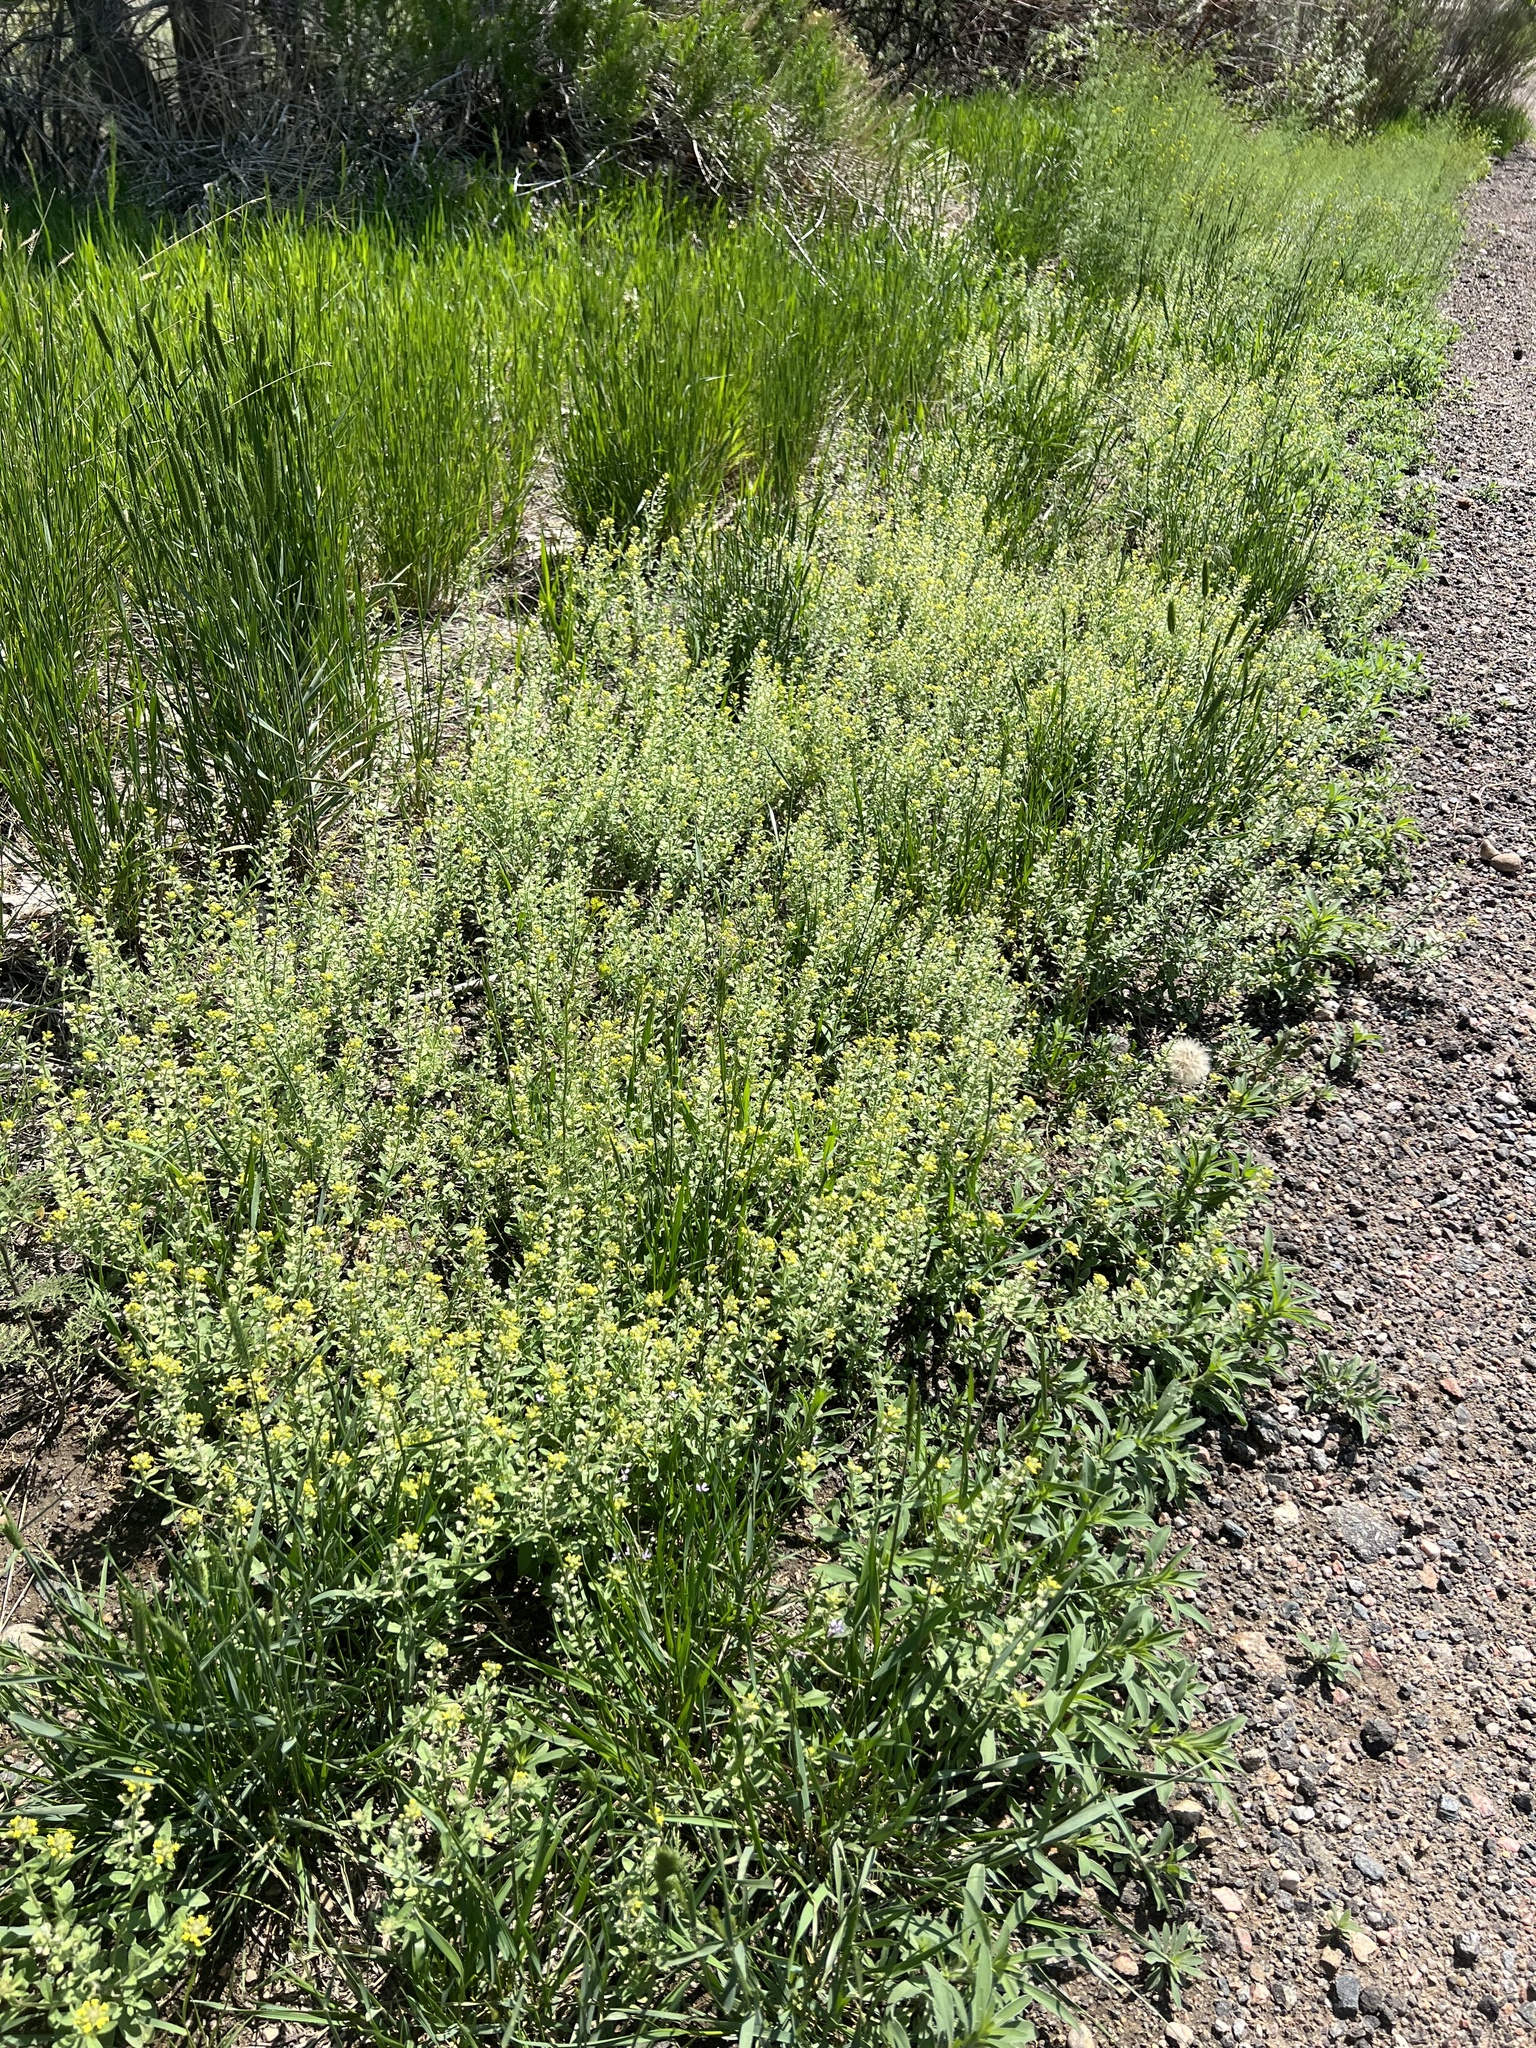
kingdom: Plantae
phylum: Tracheophyta
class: Magnoliopsida
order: Brassicales
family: Brassicaceae
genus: Alyssum
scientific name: Alyssum simplex
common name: Alyssum
